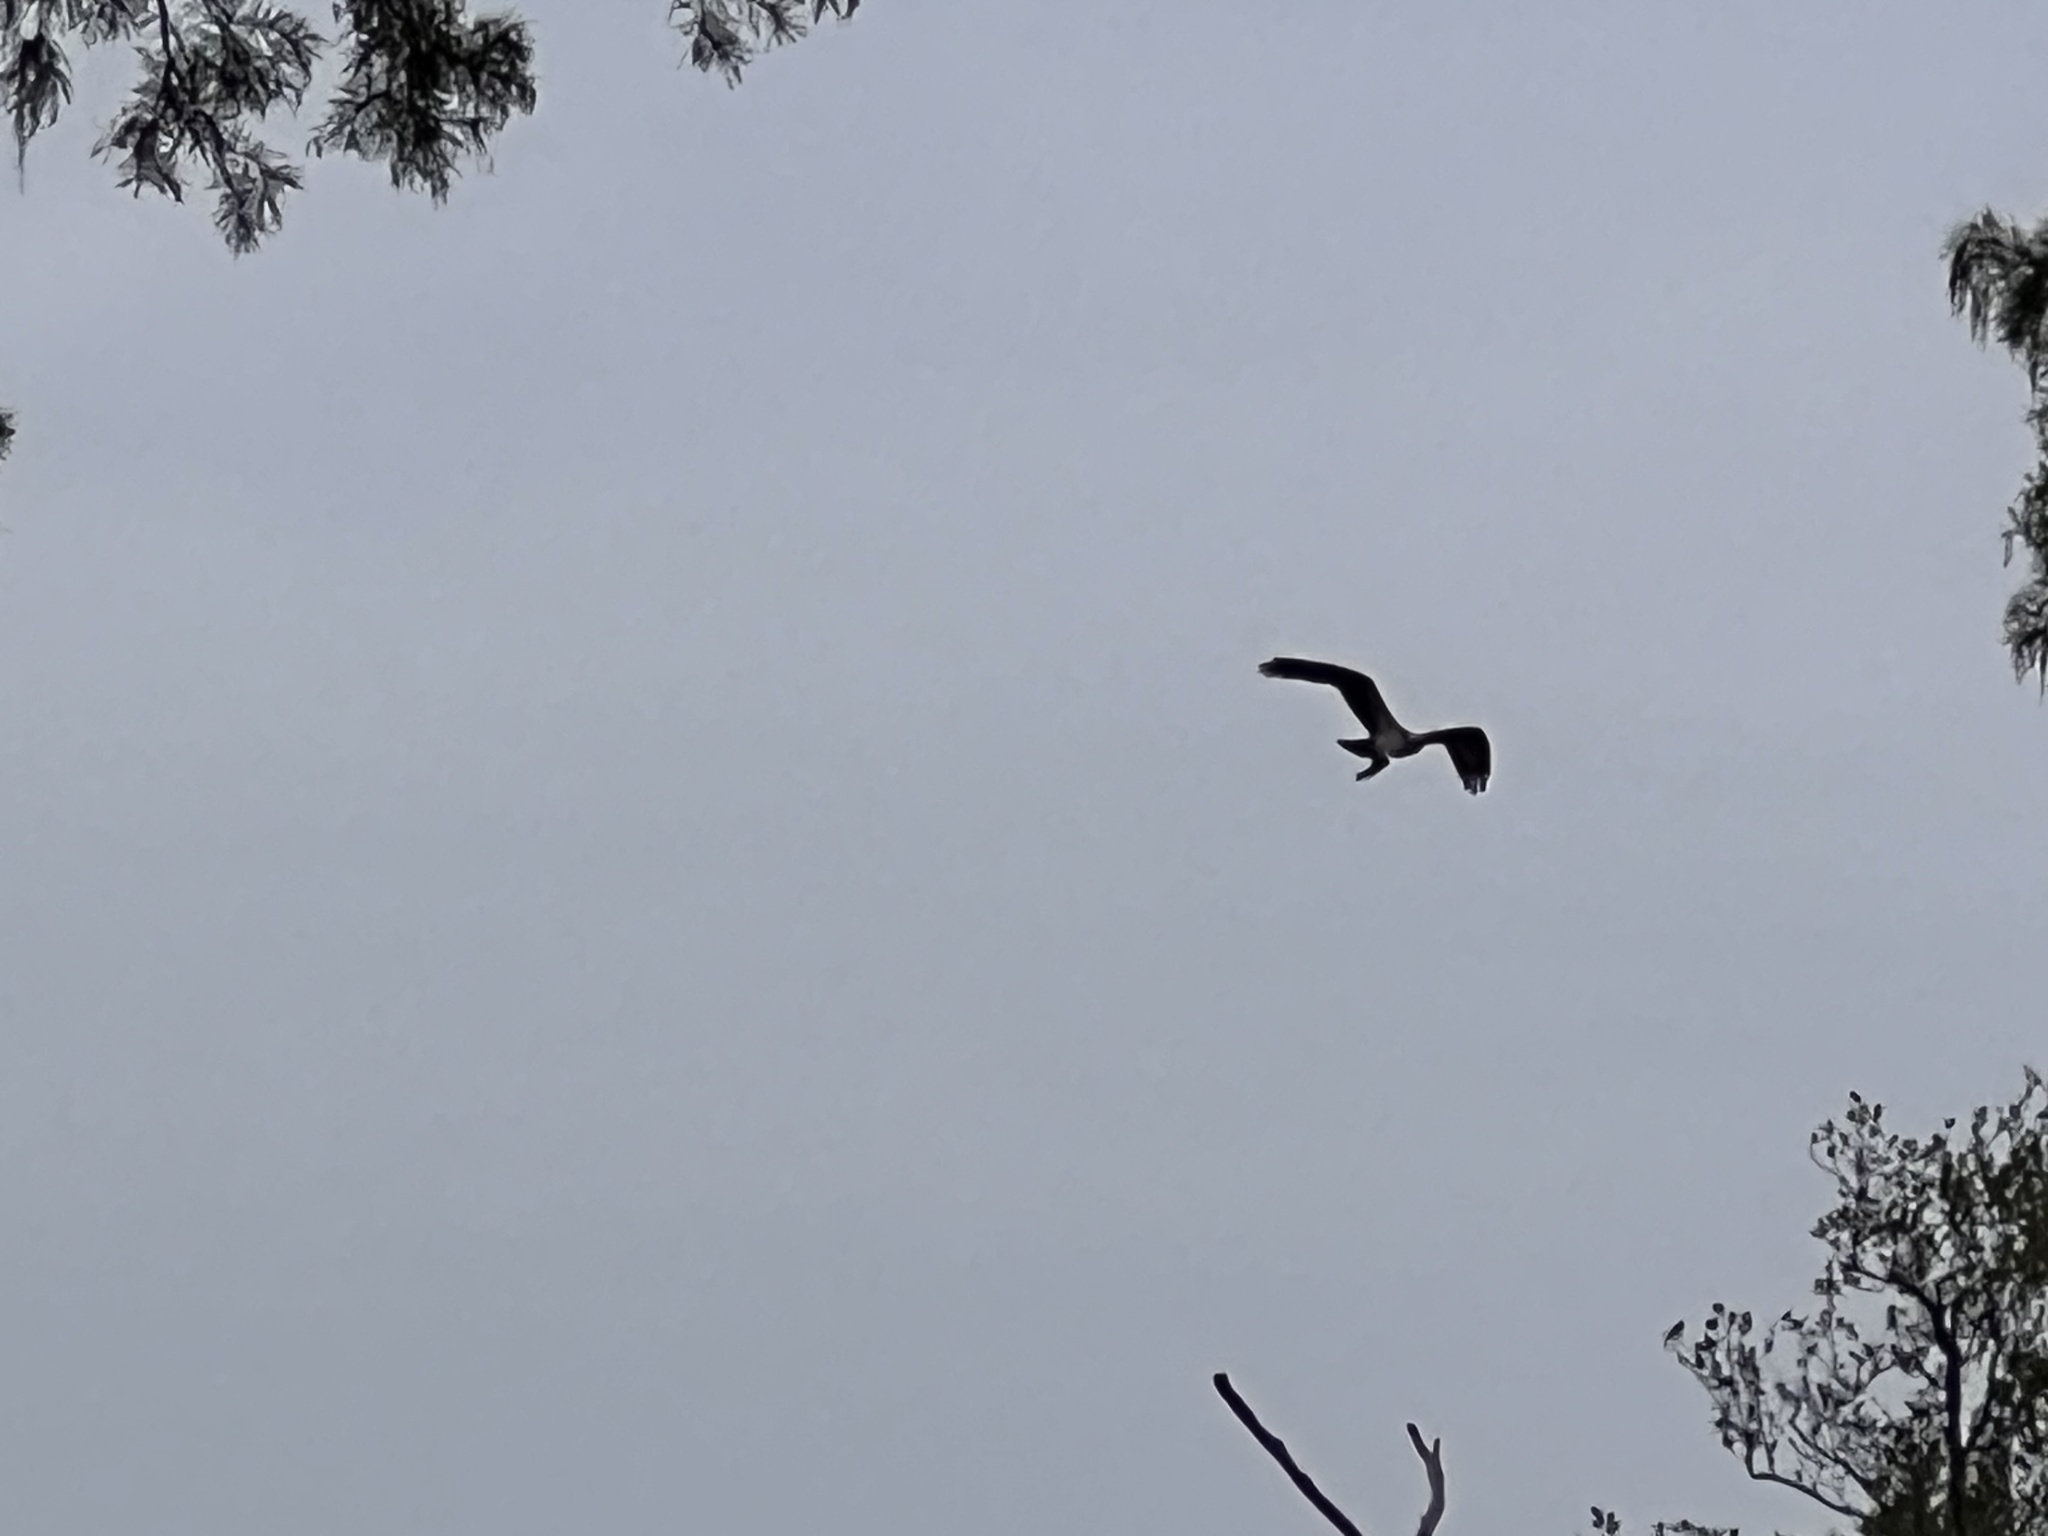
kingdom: Animalia
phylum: Chordata
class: Aves
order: Accipitriformes
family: Pandionidae
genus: Pandion
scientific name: Pandion haliaetus
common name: Osprey
